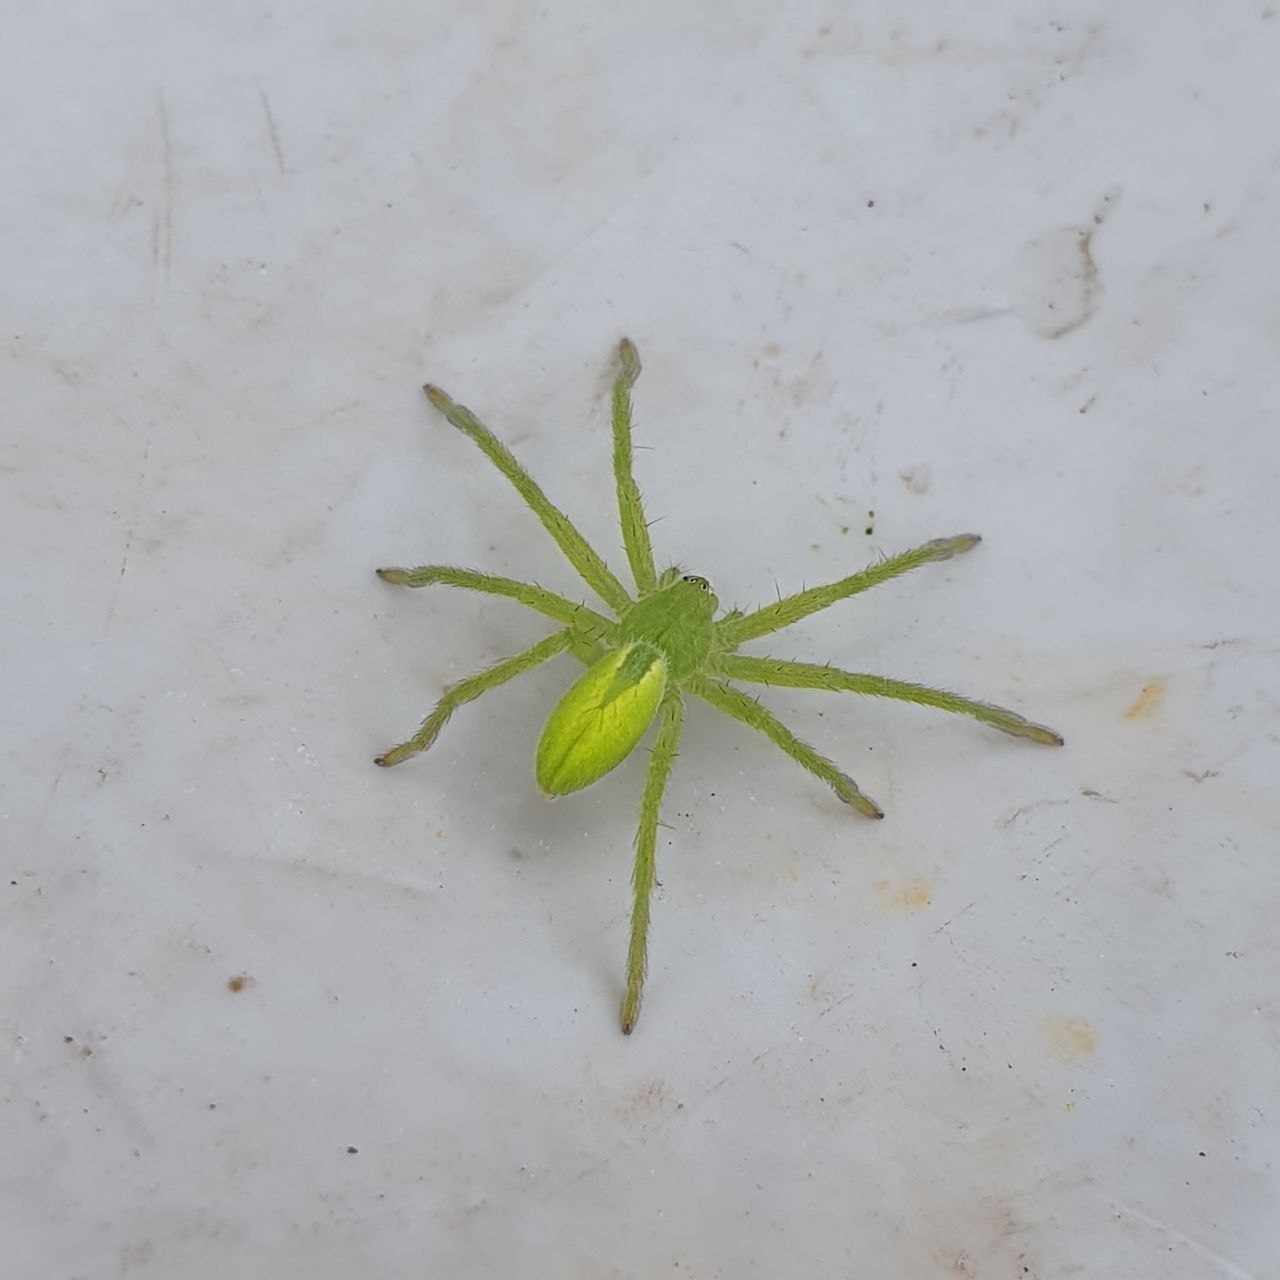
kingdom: Animalia
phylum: Arthropoda
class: Arachnida
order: Araneae
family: Sparassidae
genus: Micrommata
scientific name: Micrommata virescens
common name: Green spider
